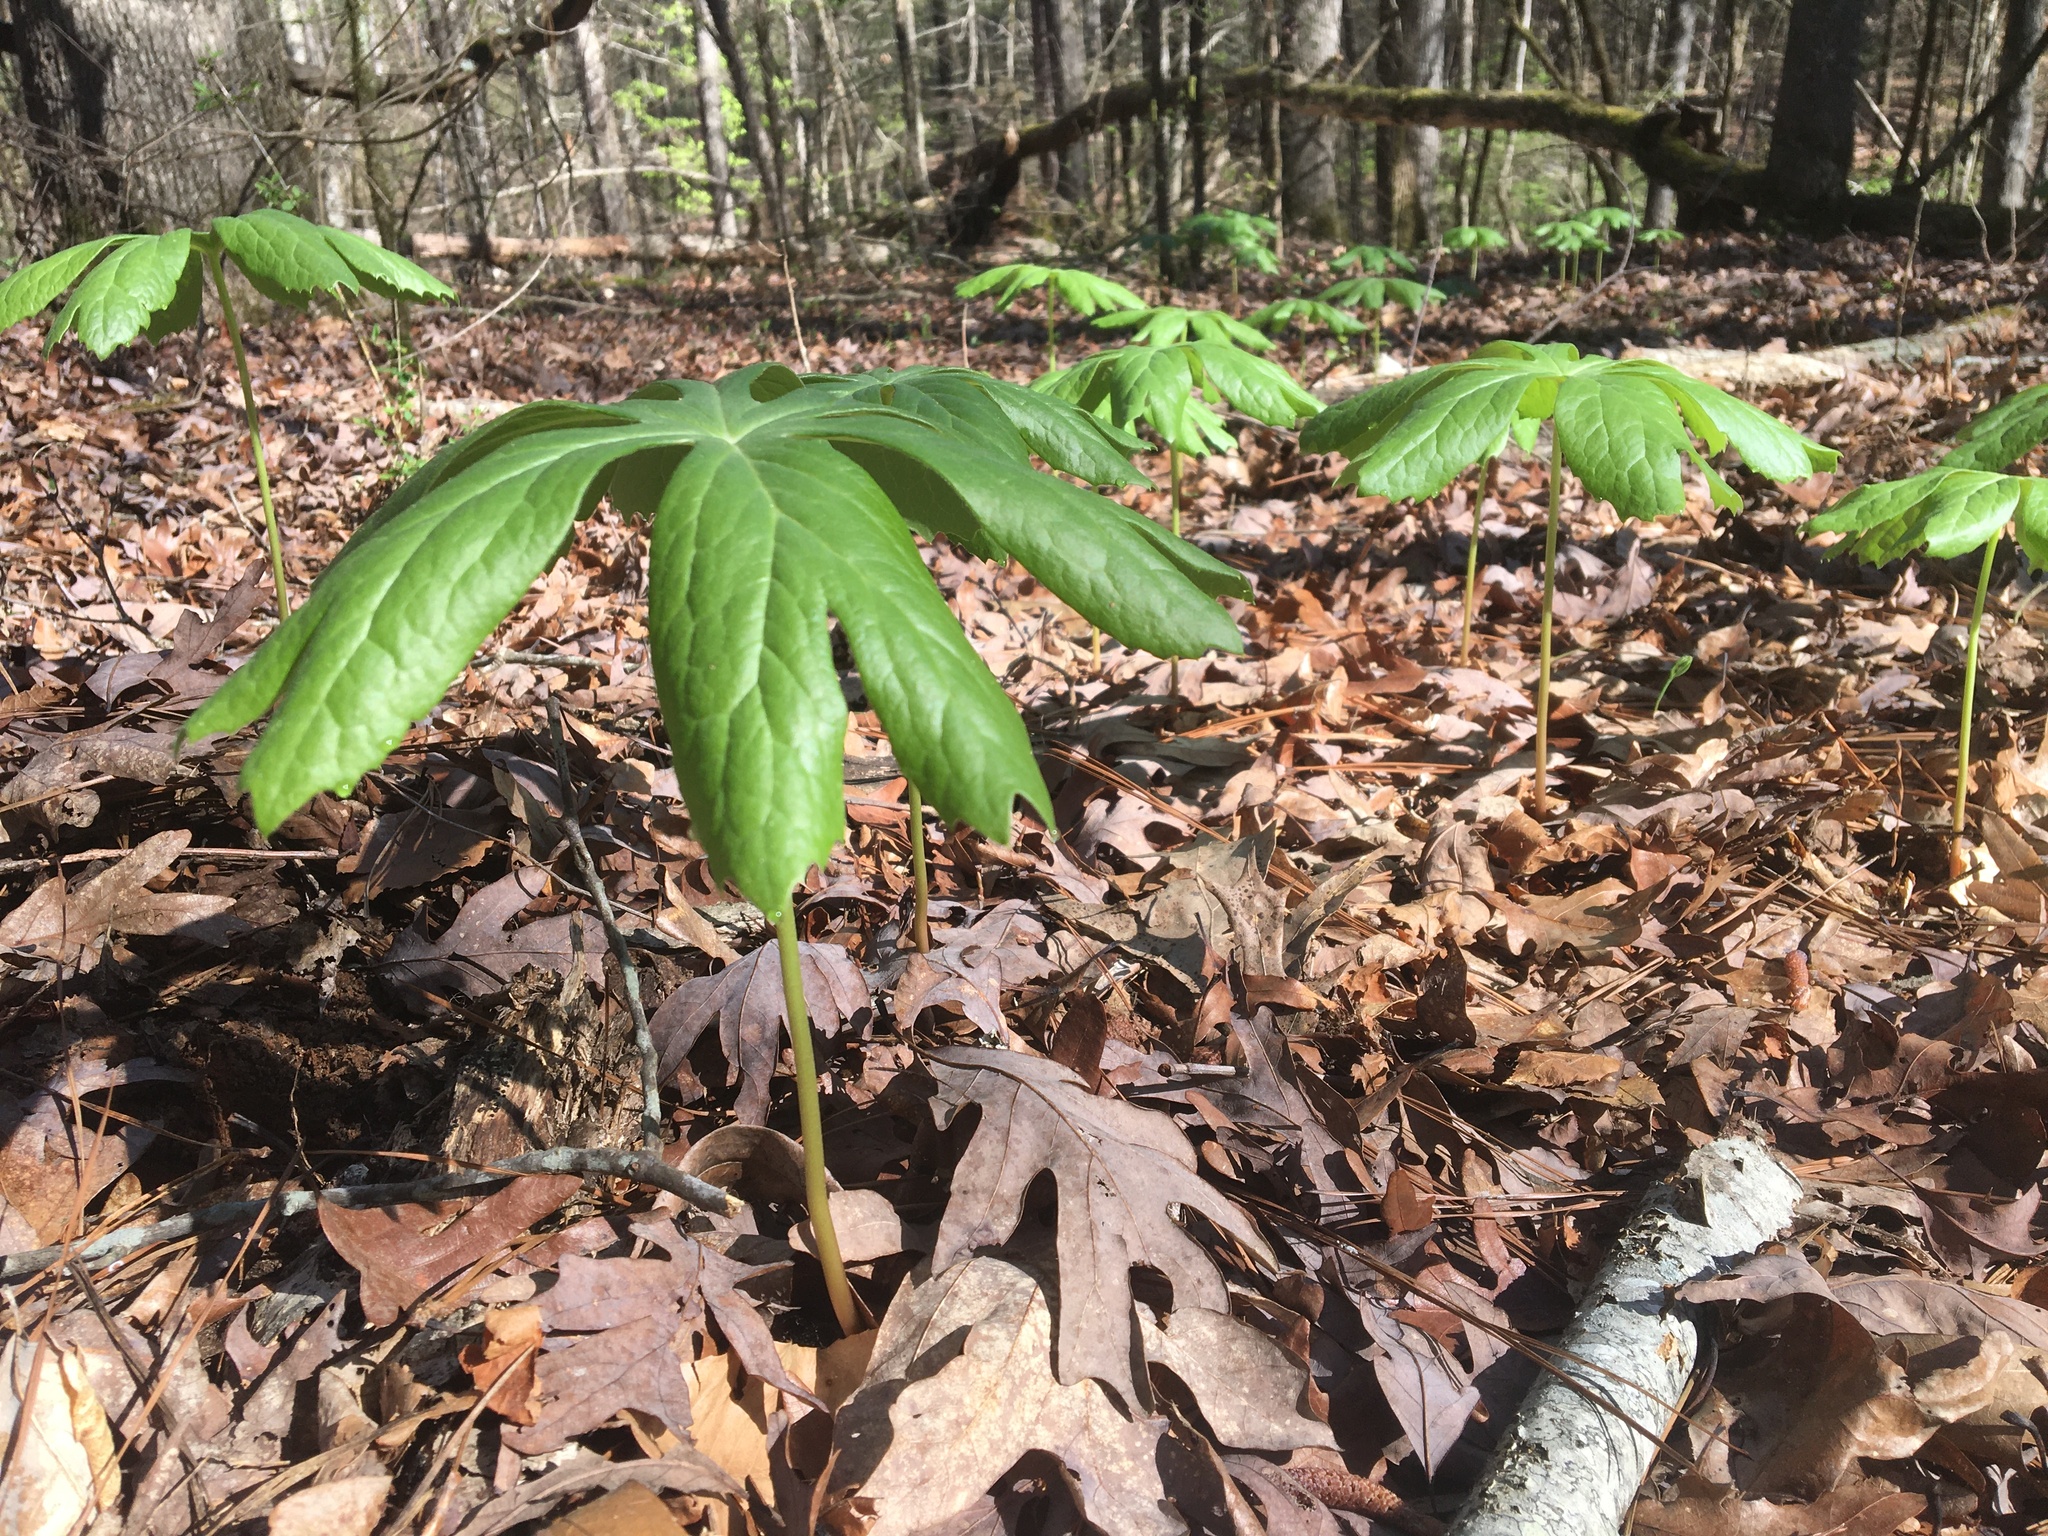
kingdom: Plantae
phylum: Tracheophyta
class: Magnoliopsida
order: Ranunculales
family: Berberidaceae
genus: Podophyllum
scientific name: Podophyllum peltatum
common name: Wild mandrake
